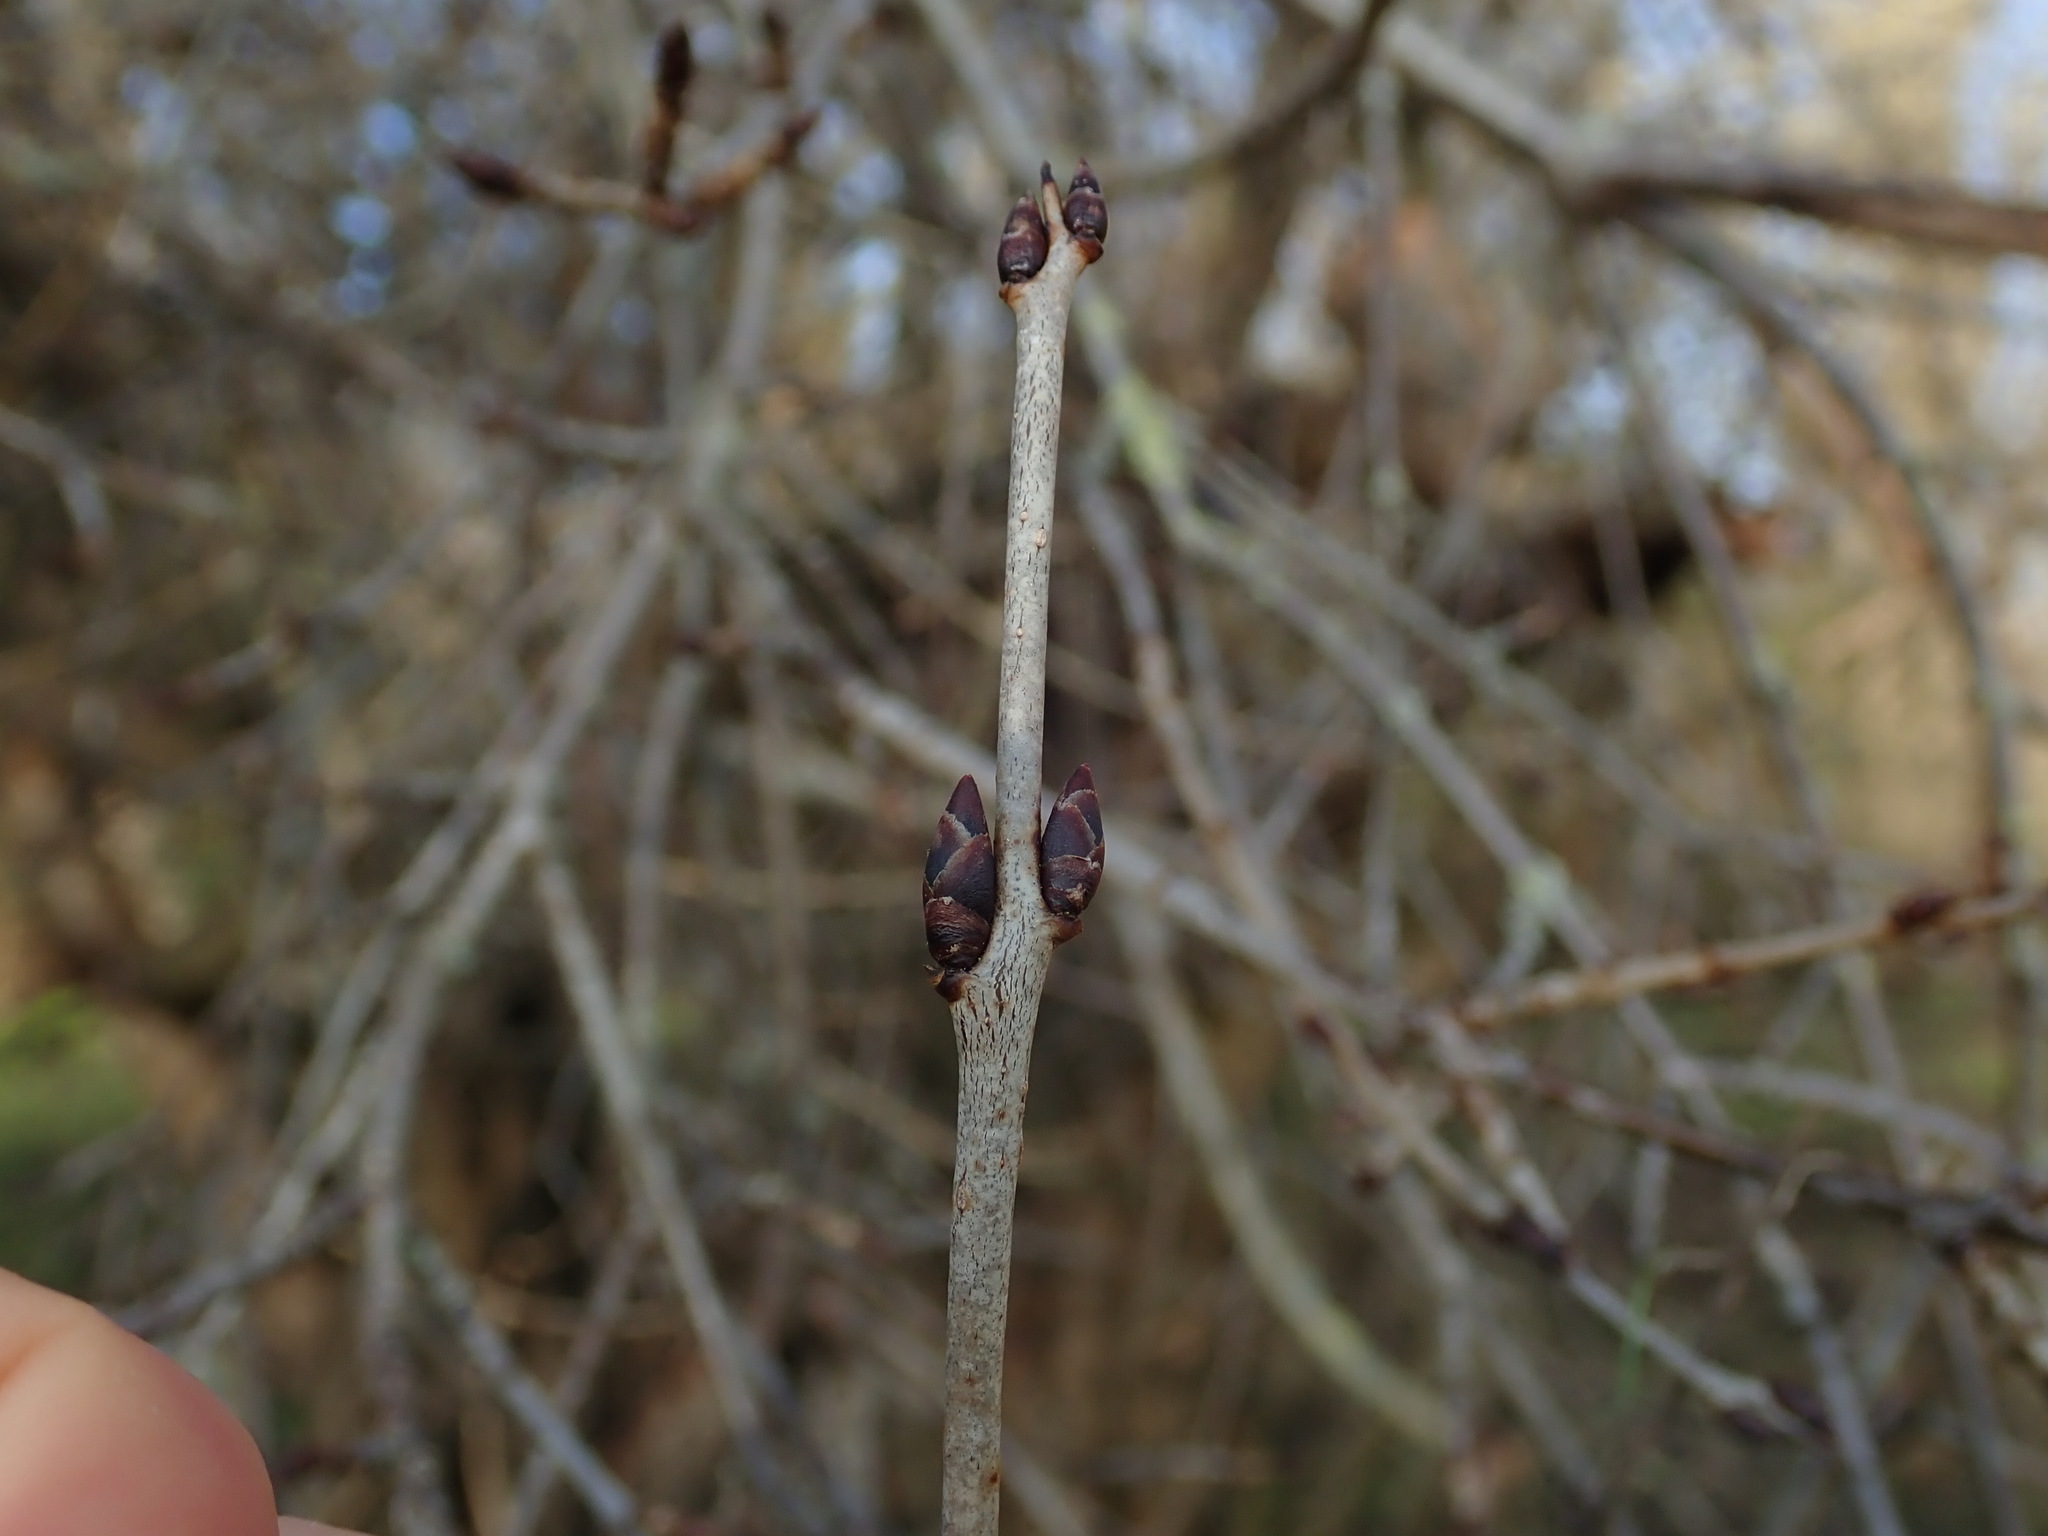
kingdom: Plantae
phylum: Tracheophyta
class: Magnoliopsida
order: Rosales
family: Rhamnaceae
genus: Rhamnus
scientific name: Rhamnus cathartica
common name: Common buckthorn
